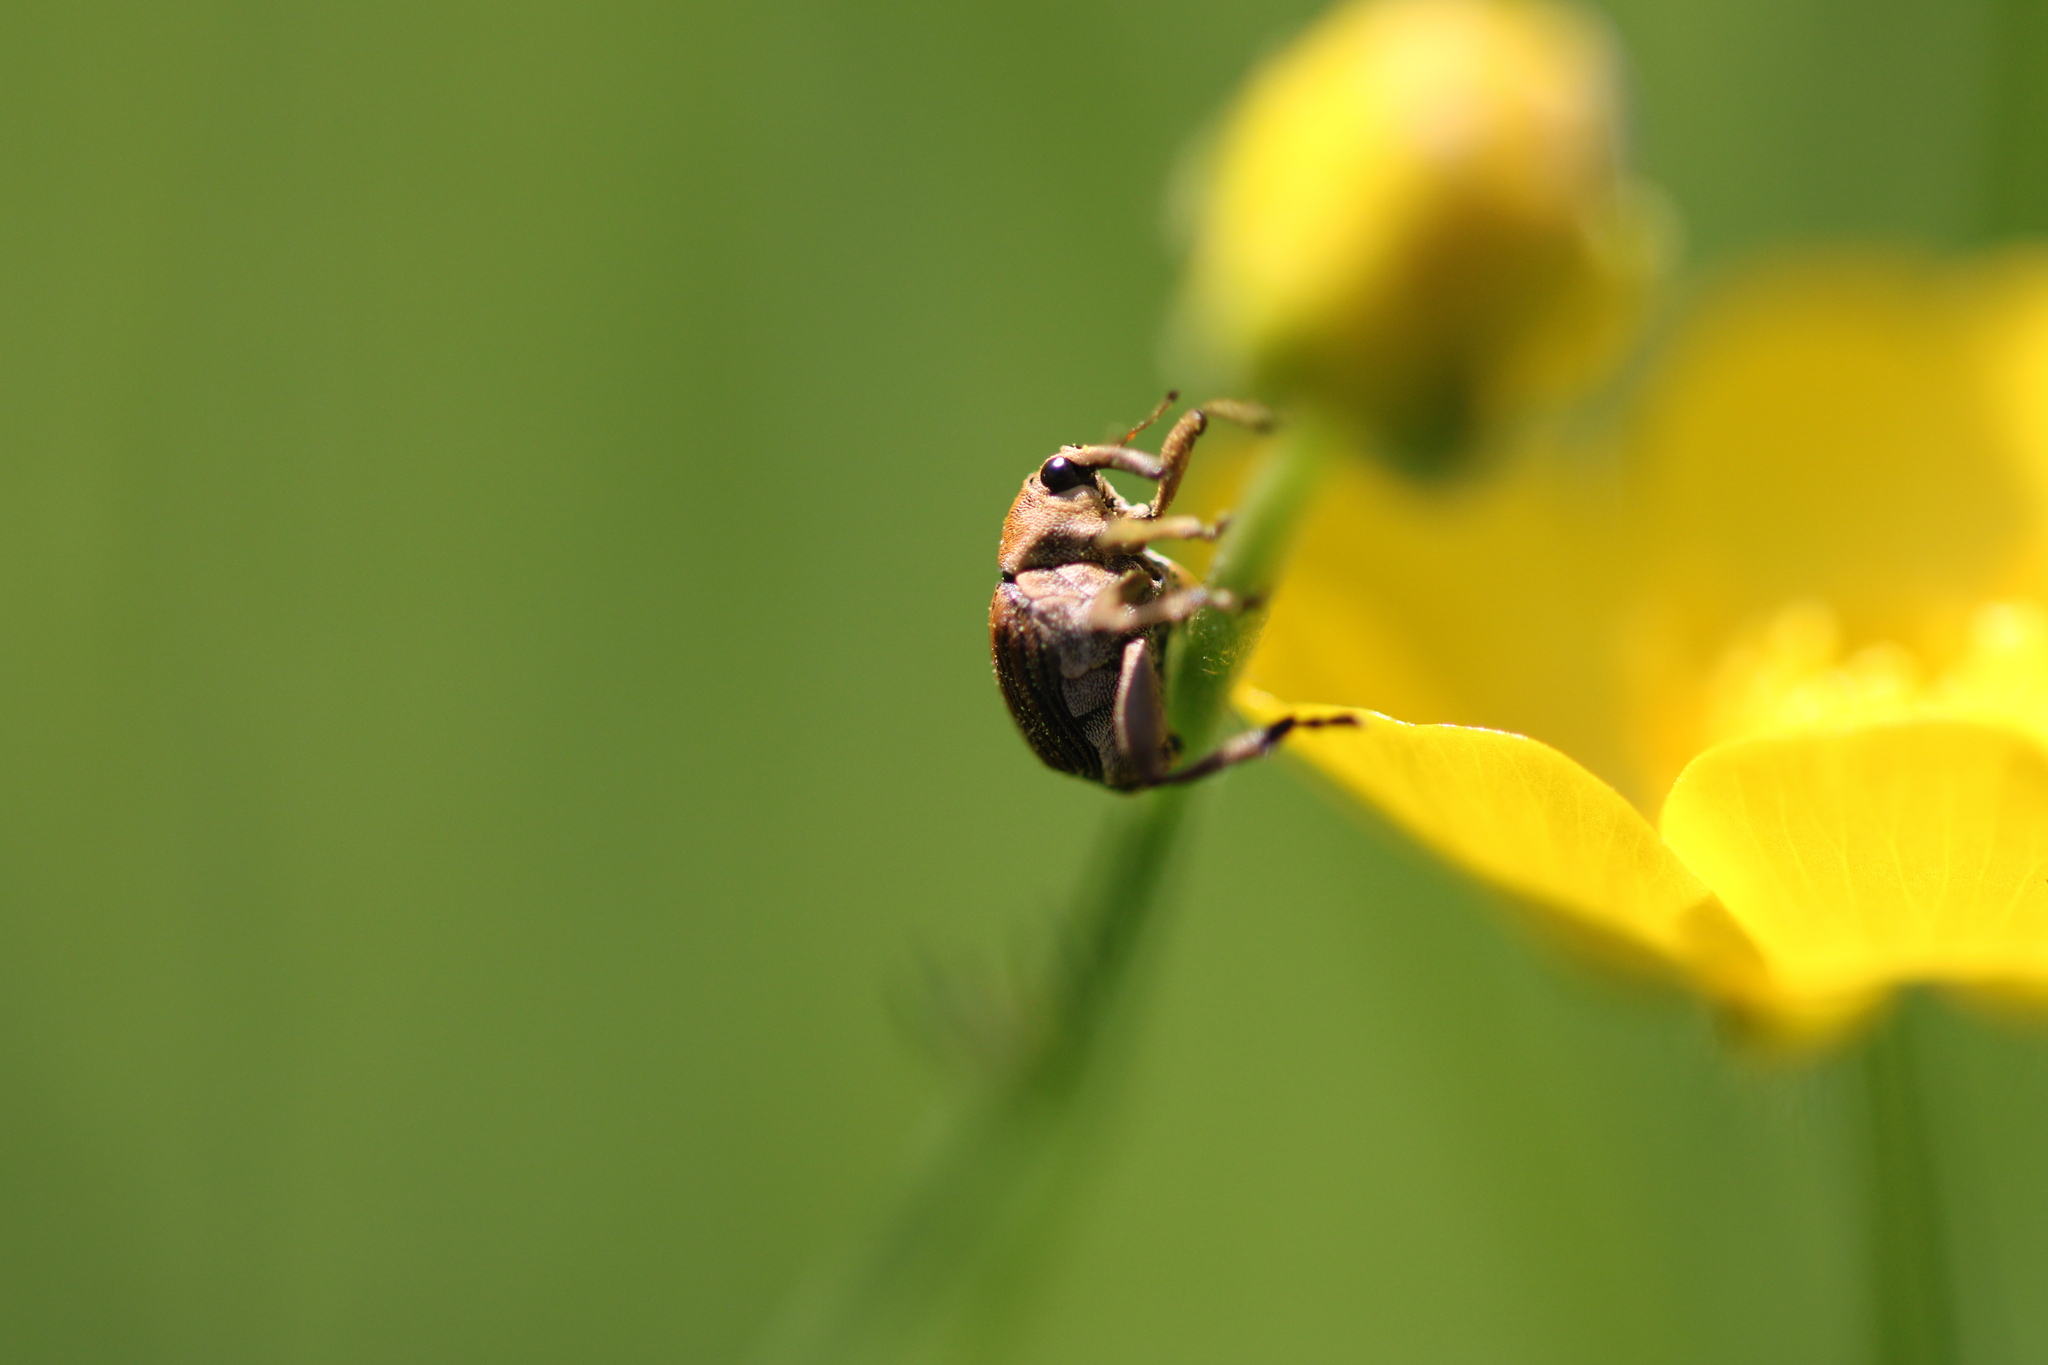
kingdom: Animalia
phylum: Arthropoda
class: Insecta
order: Coleoptera
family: Curculionidae
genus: Mononychus
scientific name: Mononychus punctumalbum
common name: Iris weevil
